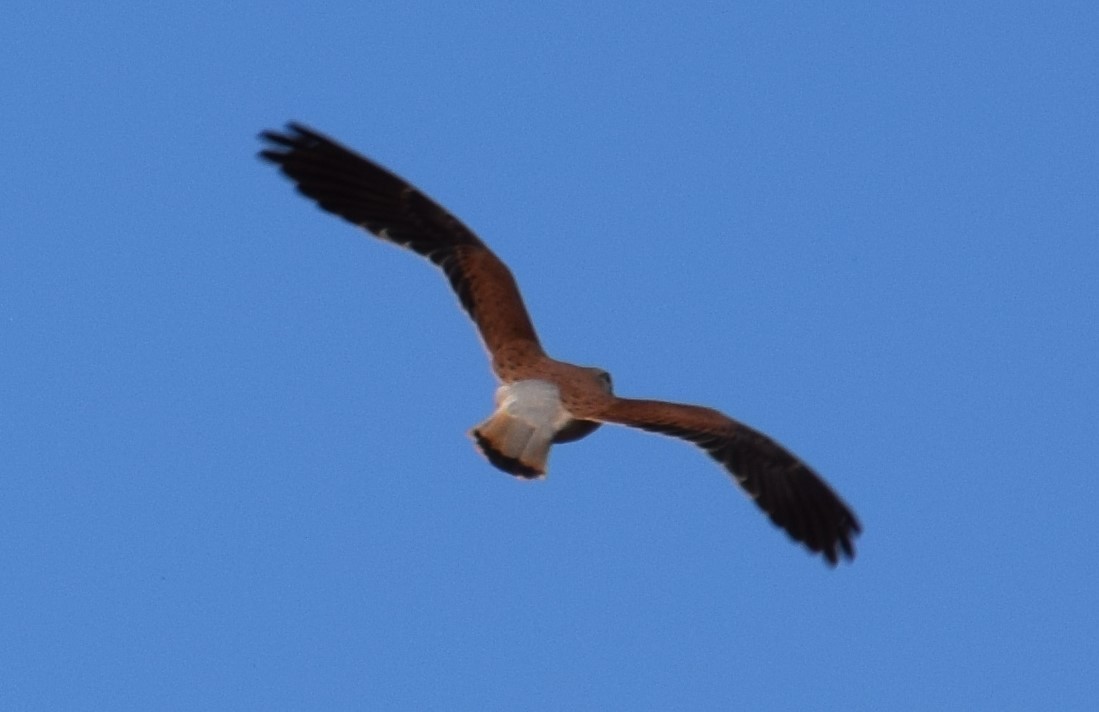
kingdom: Animalia
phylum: Chordata
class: Aves
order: Falconiformes
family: Falconidae
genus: Falco
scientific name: Falco cenchroides
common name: Nankeen kestrel
